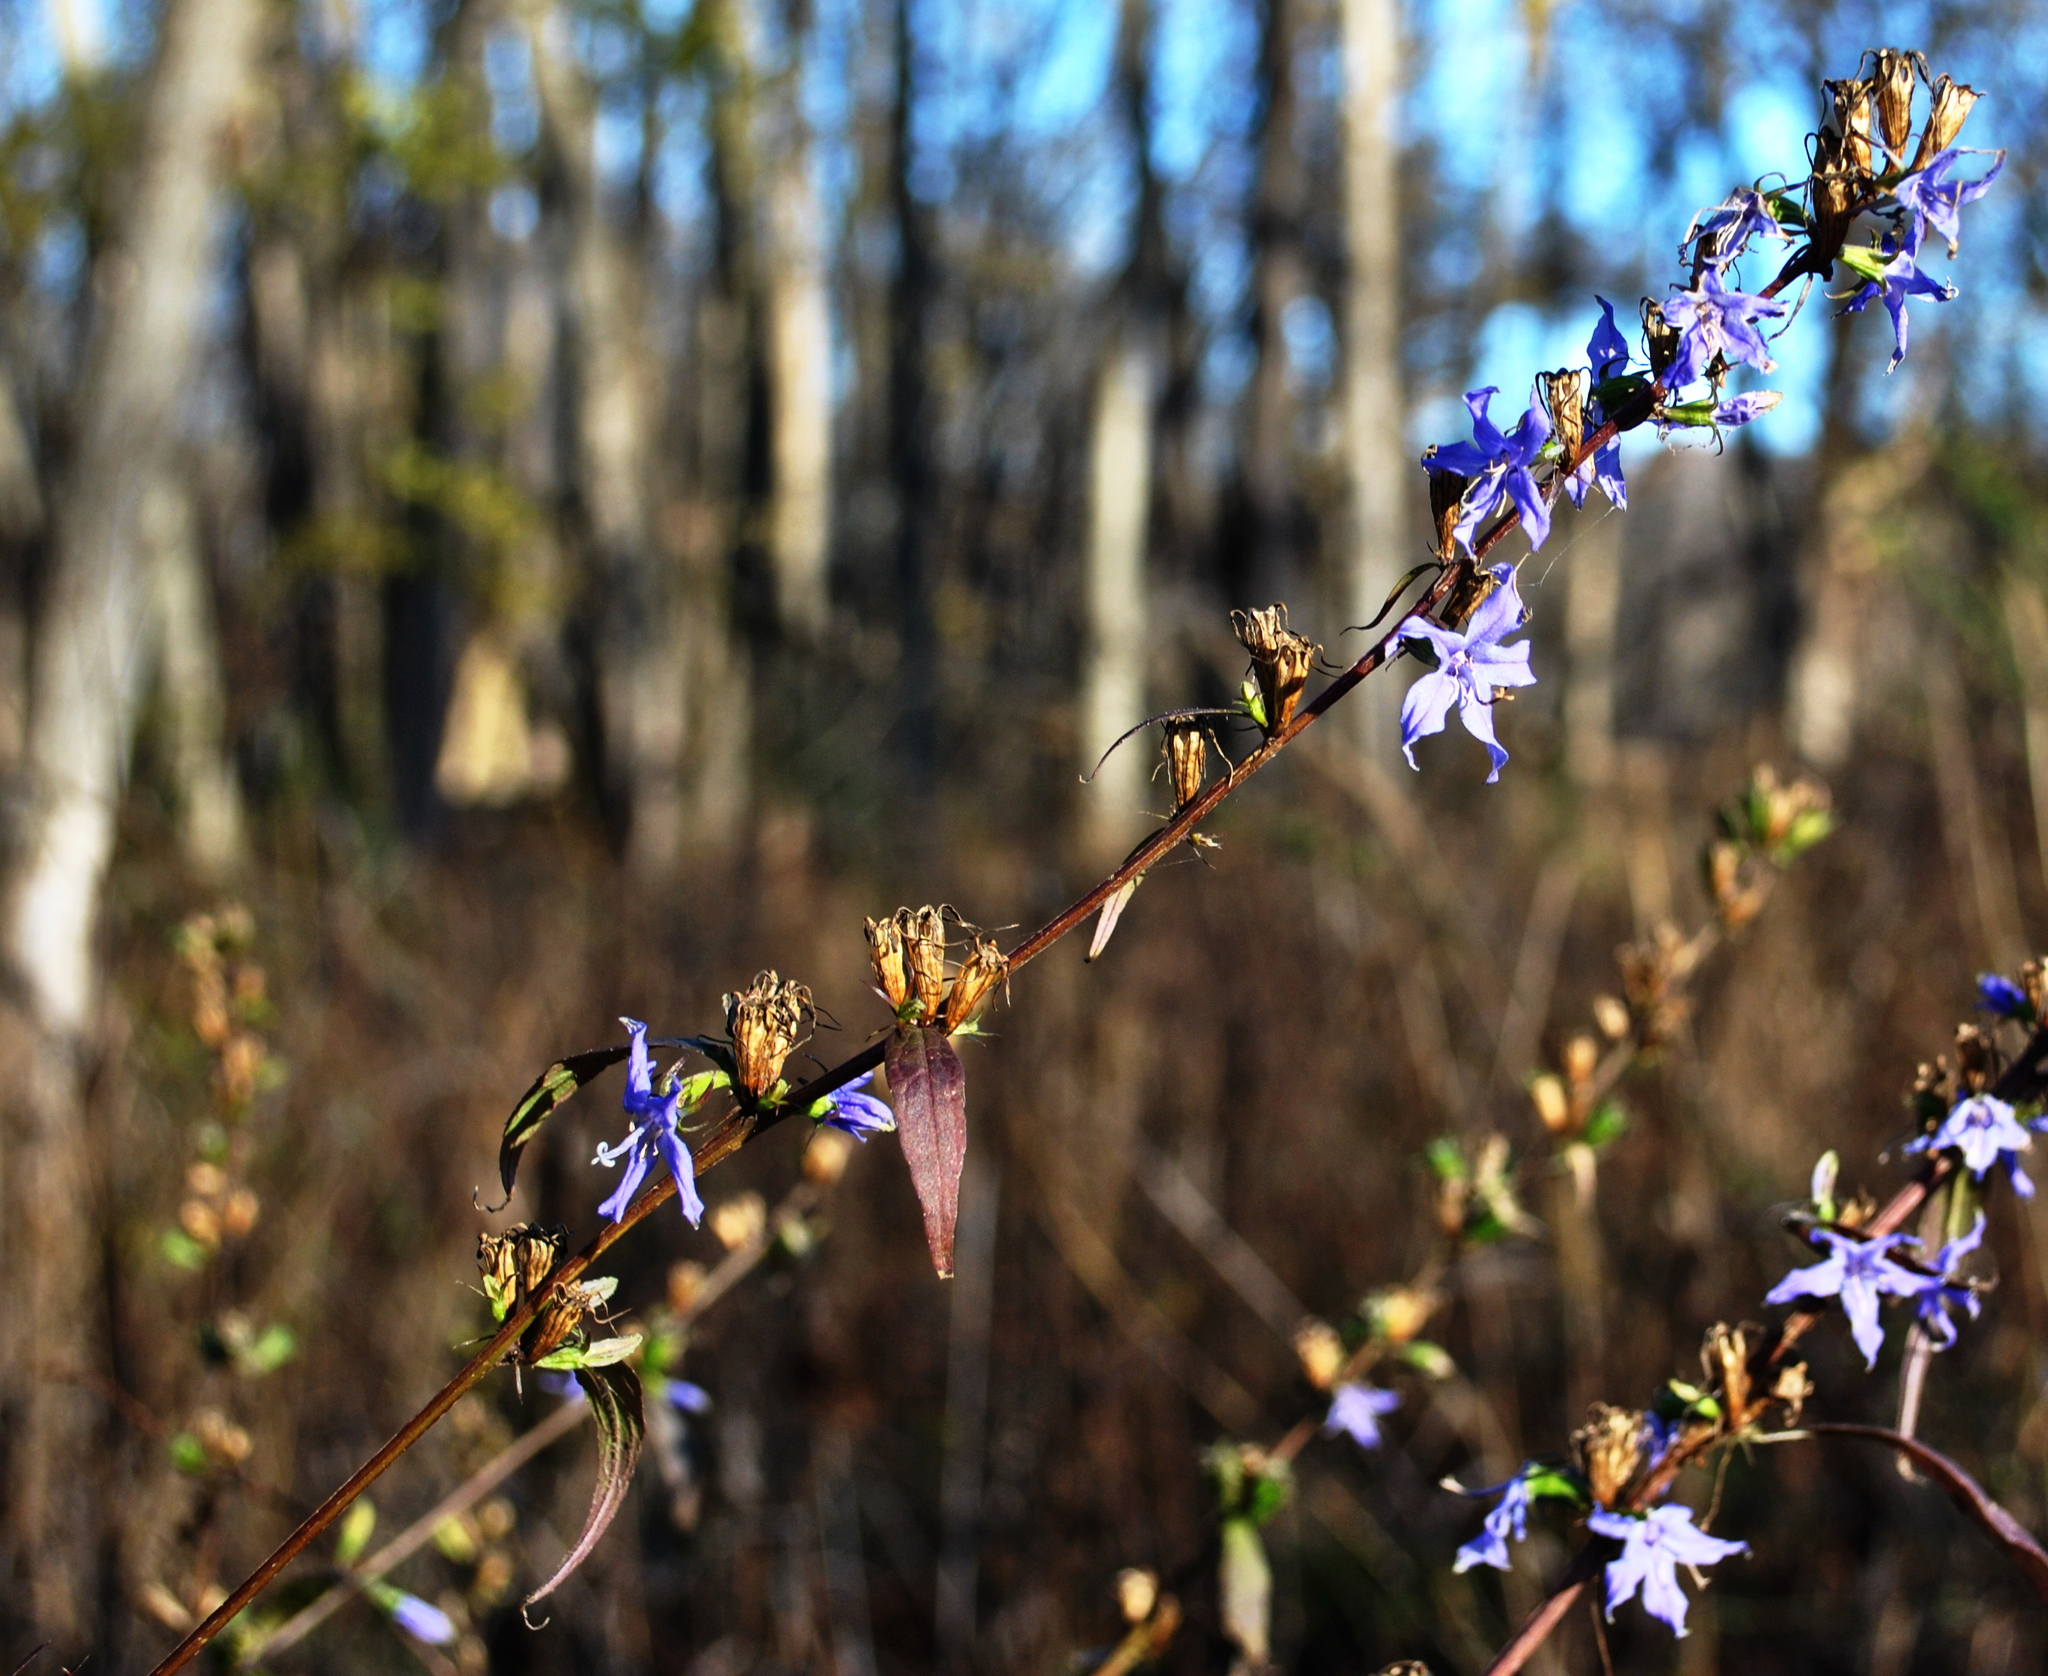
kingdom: Plantae
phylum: Tracheophyta
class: Magnoliopsida
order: Asterales
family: Campanulaceae
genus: Campanulastrum
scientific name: Campanulastrum americanum
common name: American bellflower
